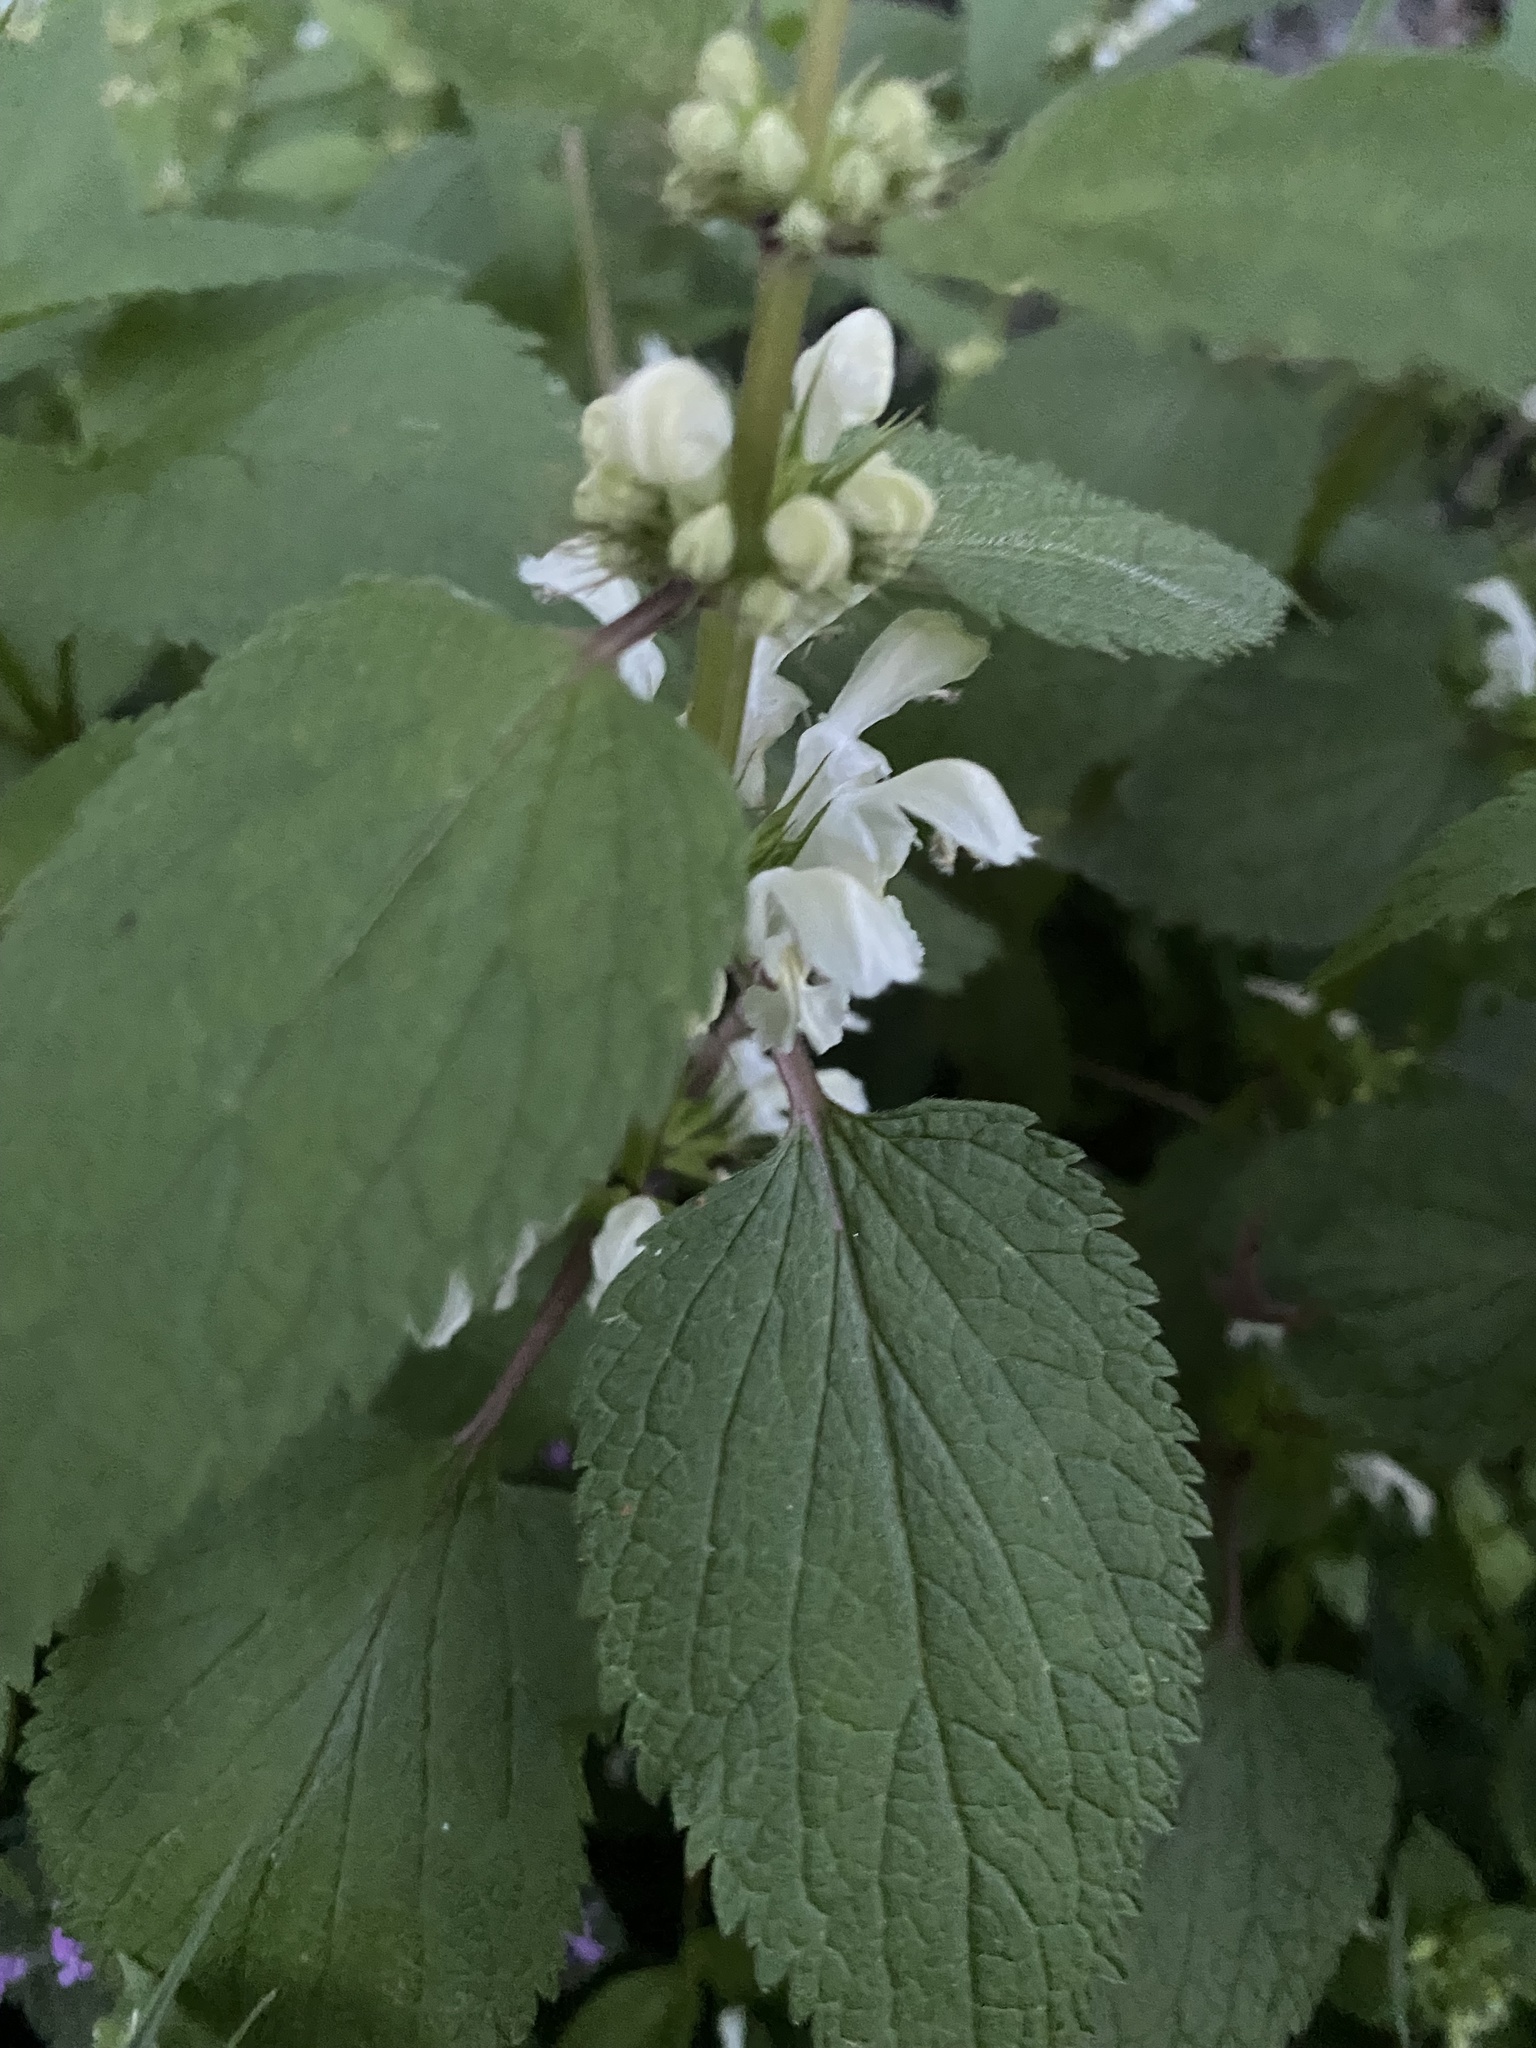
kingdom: Plantae
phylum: Tracheophyta
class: Magnoliopsida
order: Lamiales
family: Lamiaceae
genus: Lamium
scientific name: Lamium album
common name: White dead-nettle
